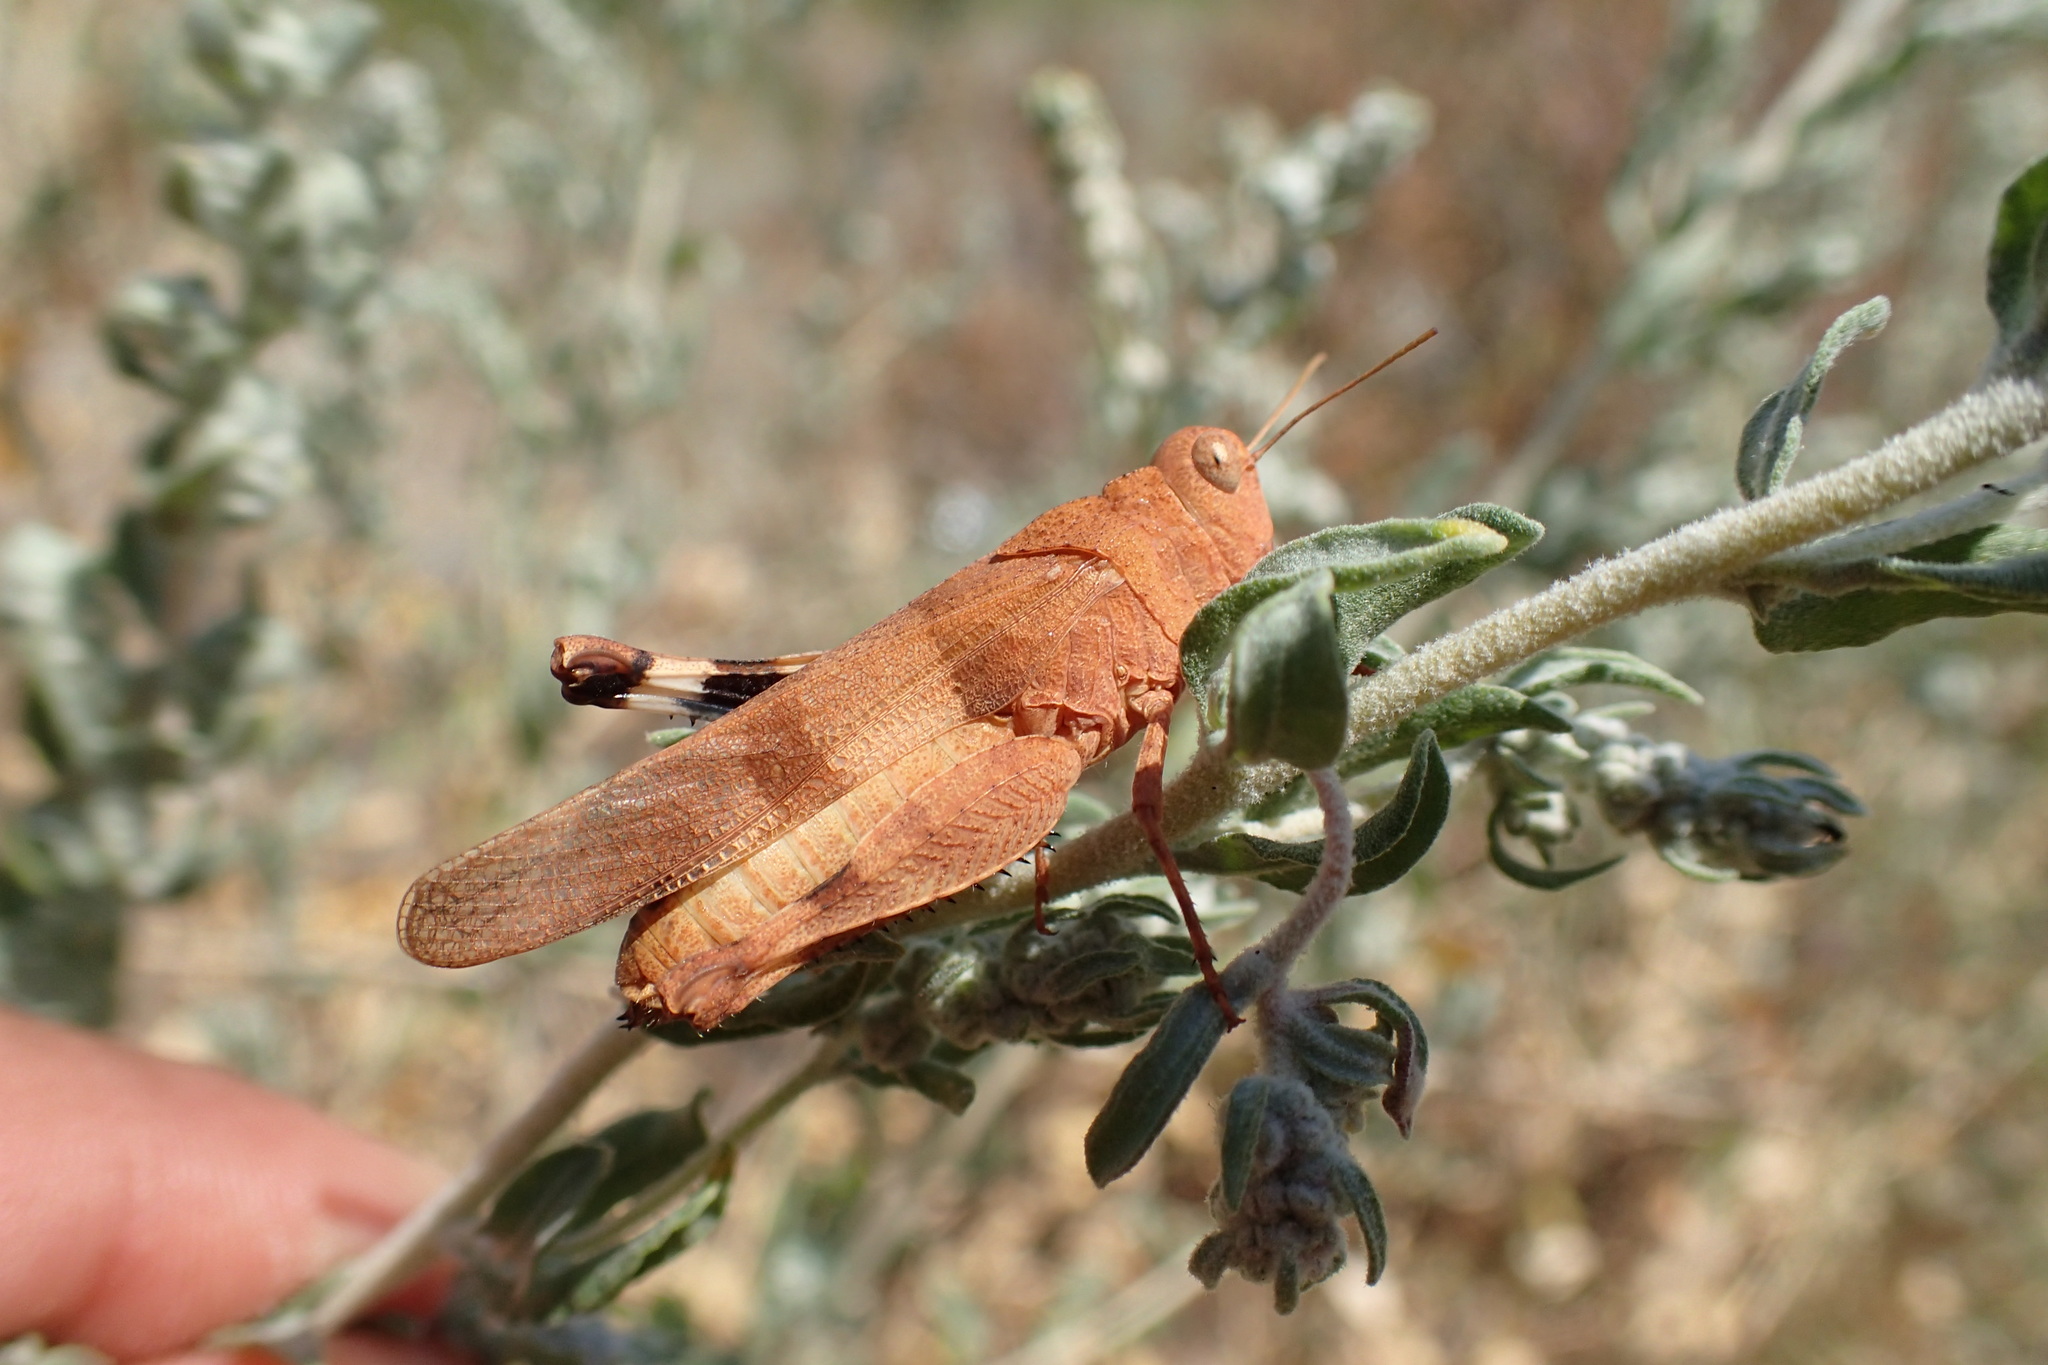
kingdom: Animalia
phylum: Arthropoda
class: Insecta
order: Orthoptera
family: Acrididae
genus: Oedipoda
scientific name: Oedipoda caerulescens
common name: Blue-winged grasshopper
